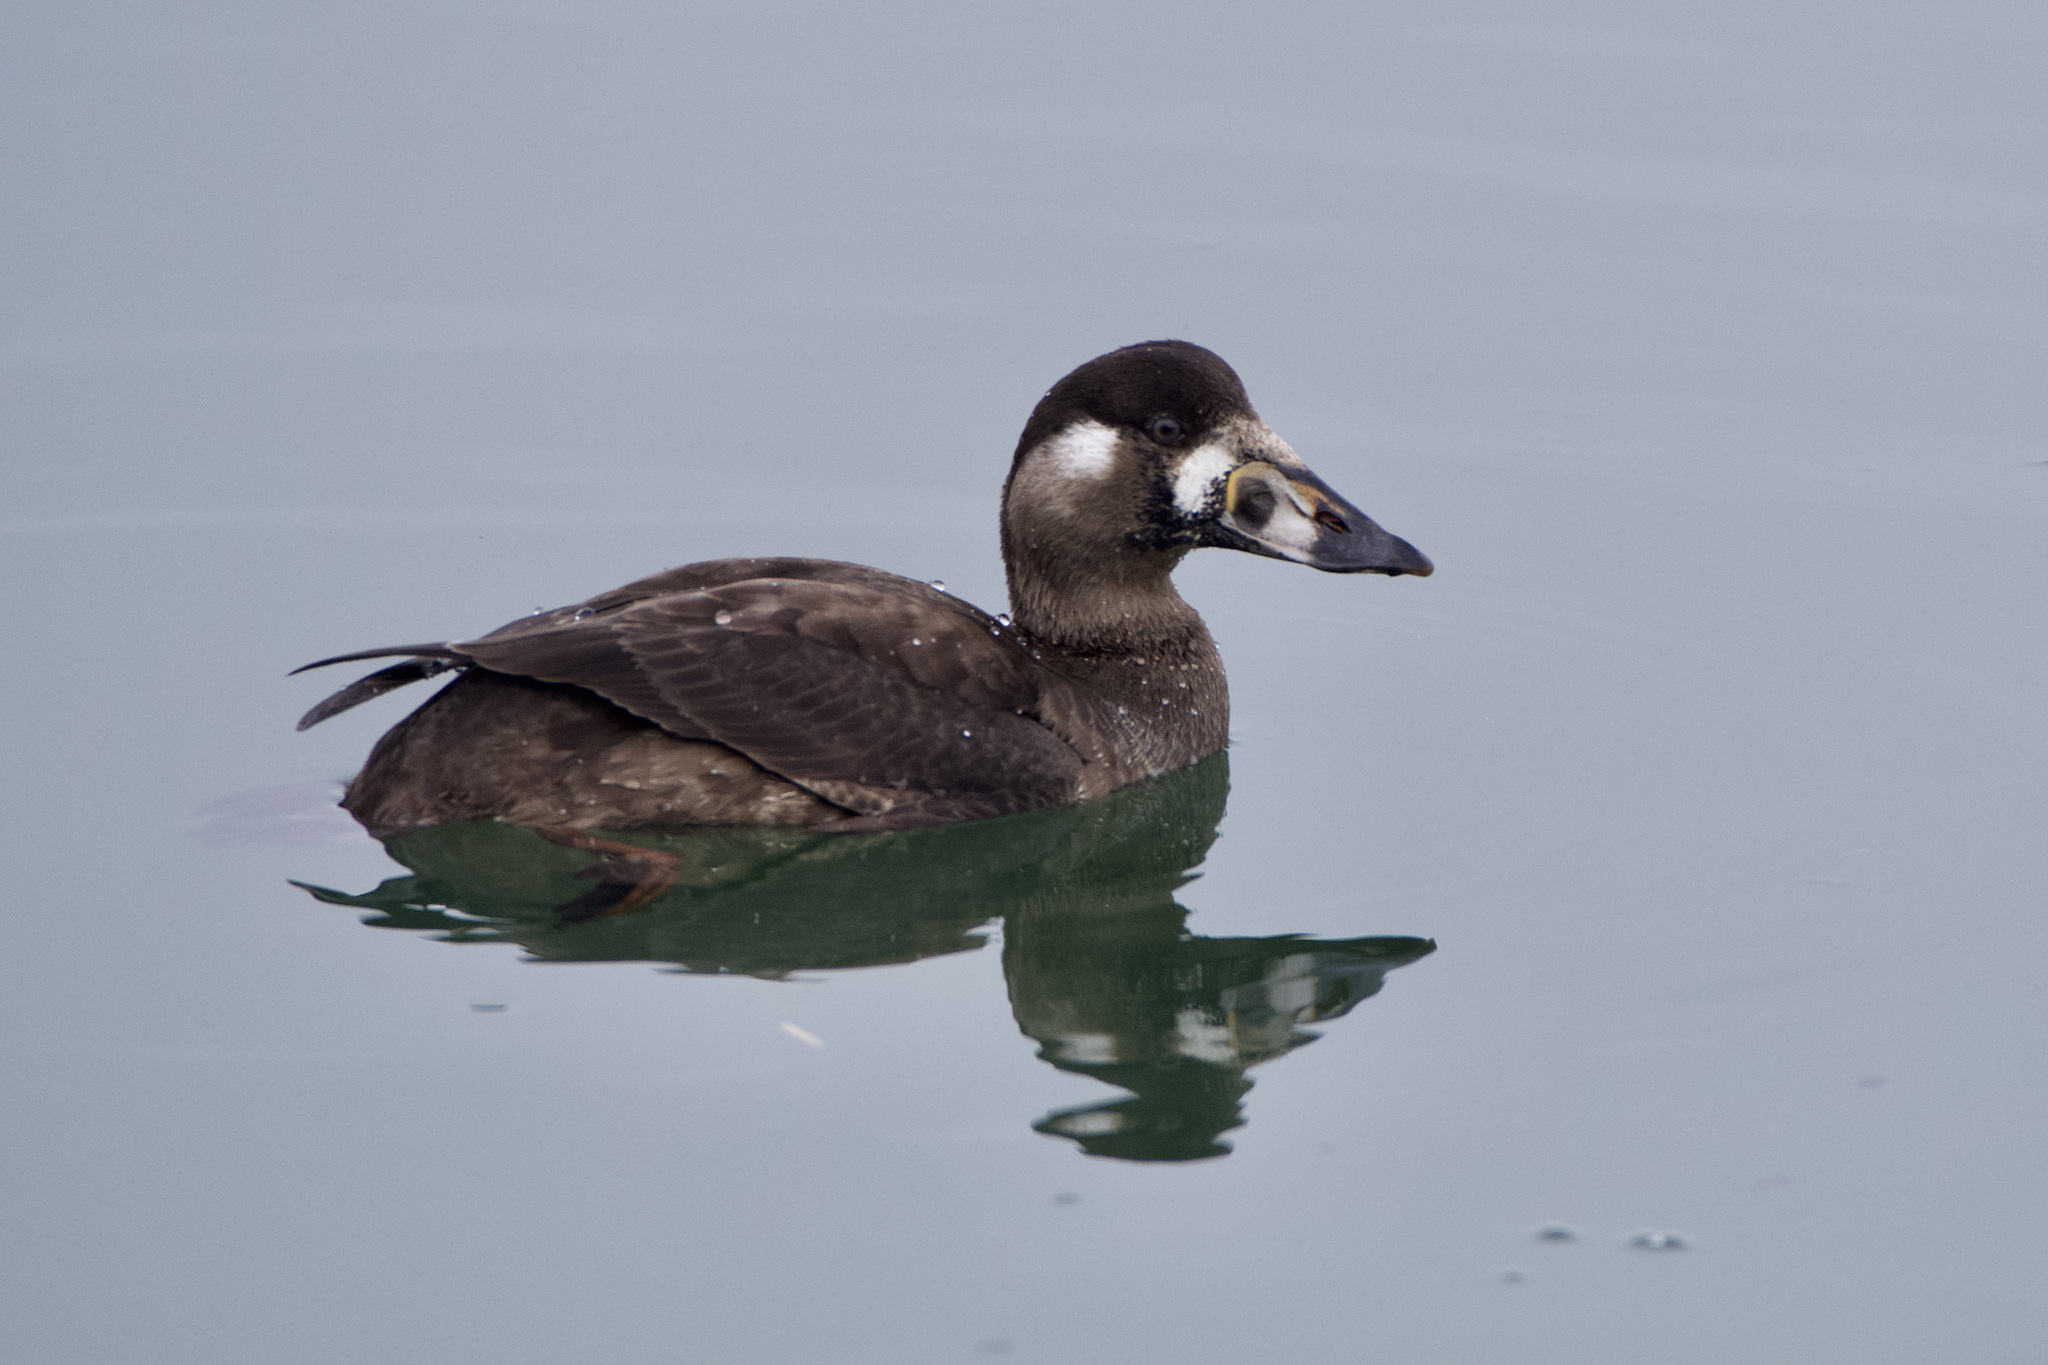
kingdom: Animalia
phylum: Chordata
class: Aves
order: Anseriformes
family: Anatidae
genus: Melanitta
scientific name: Melanitta perspicillata
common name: Surf scoter
